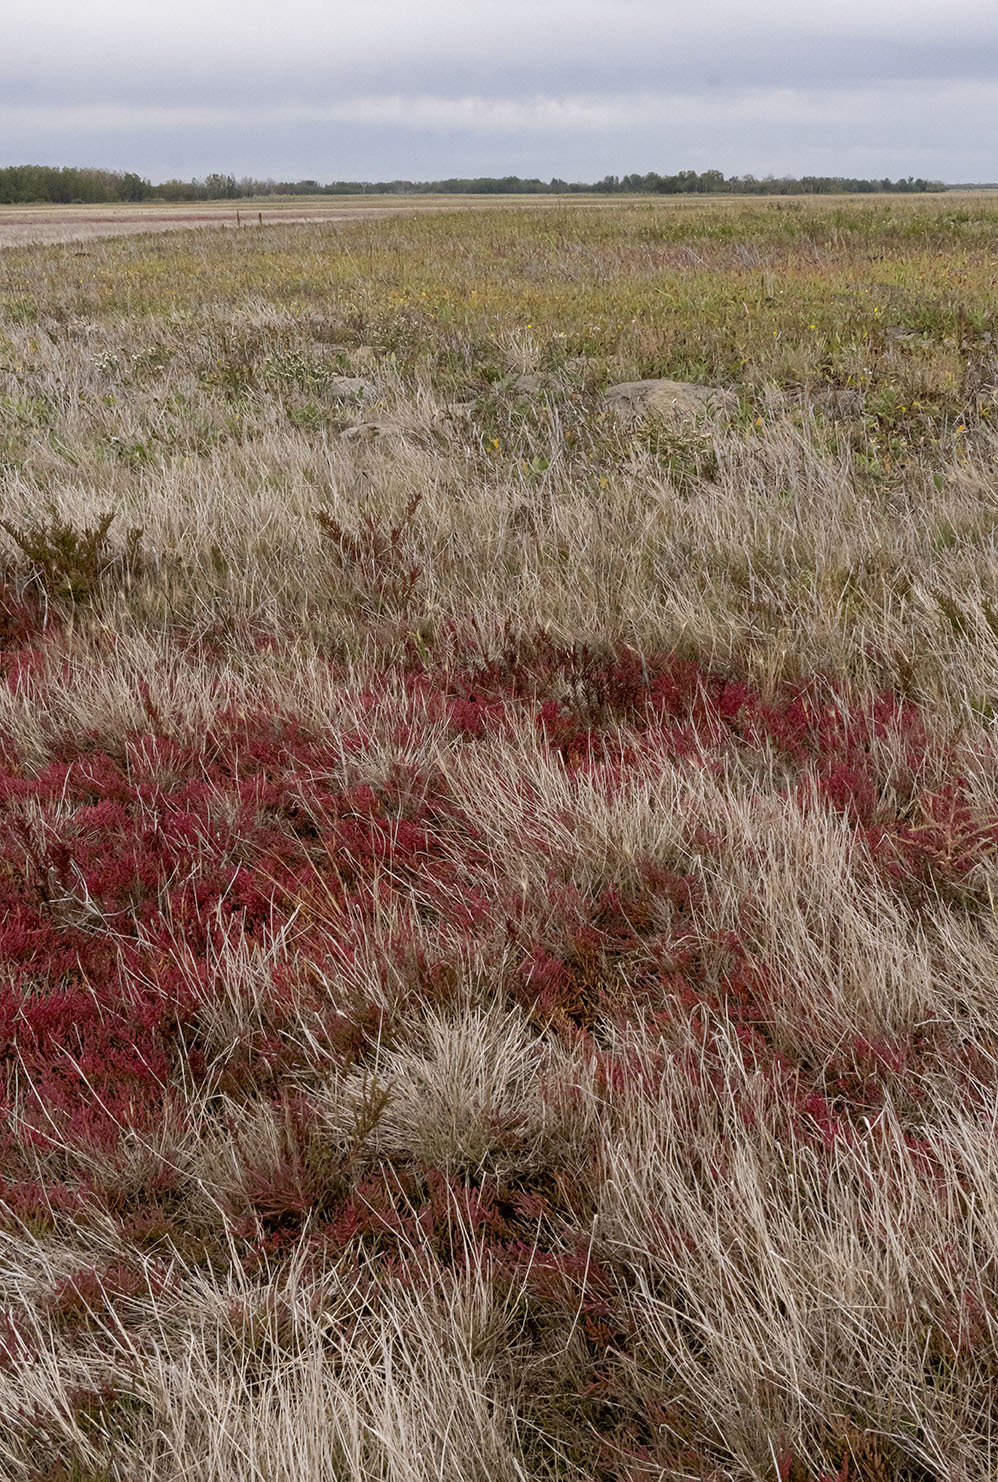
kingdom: Plantae
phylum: Tracheophyta
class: Magnoliopsida
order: Caryophyllales
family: Amaranthaceae
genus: Salicornia
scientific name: Salicornia rubra
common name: Red glasswort
